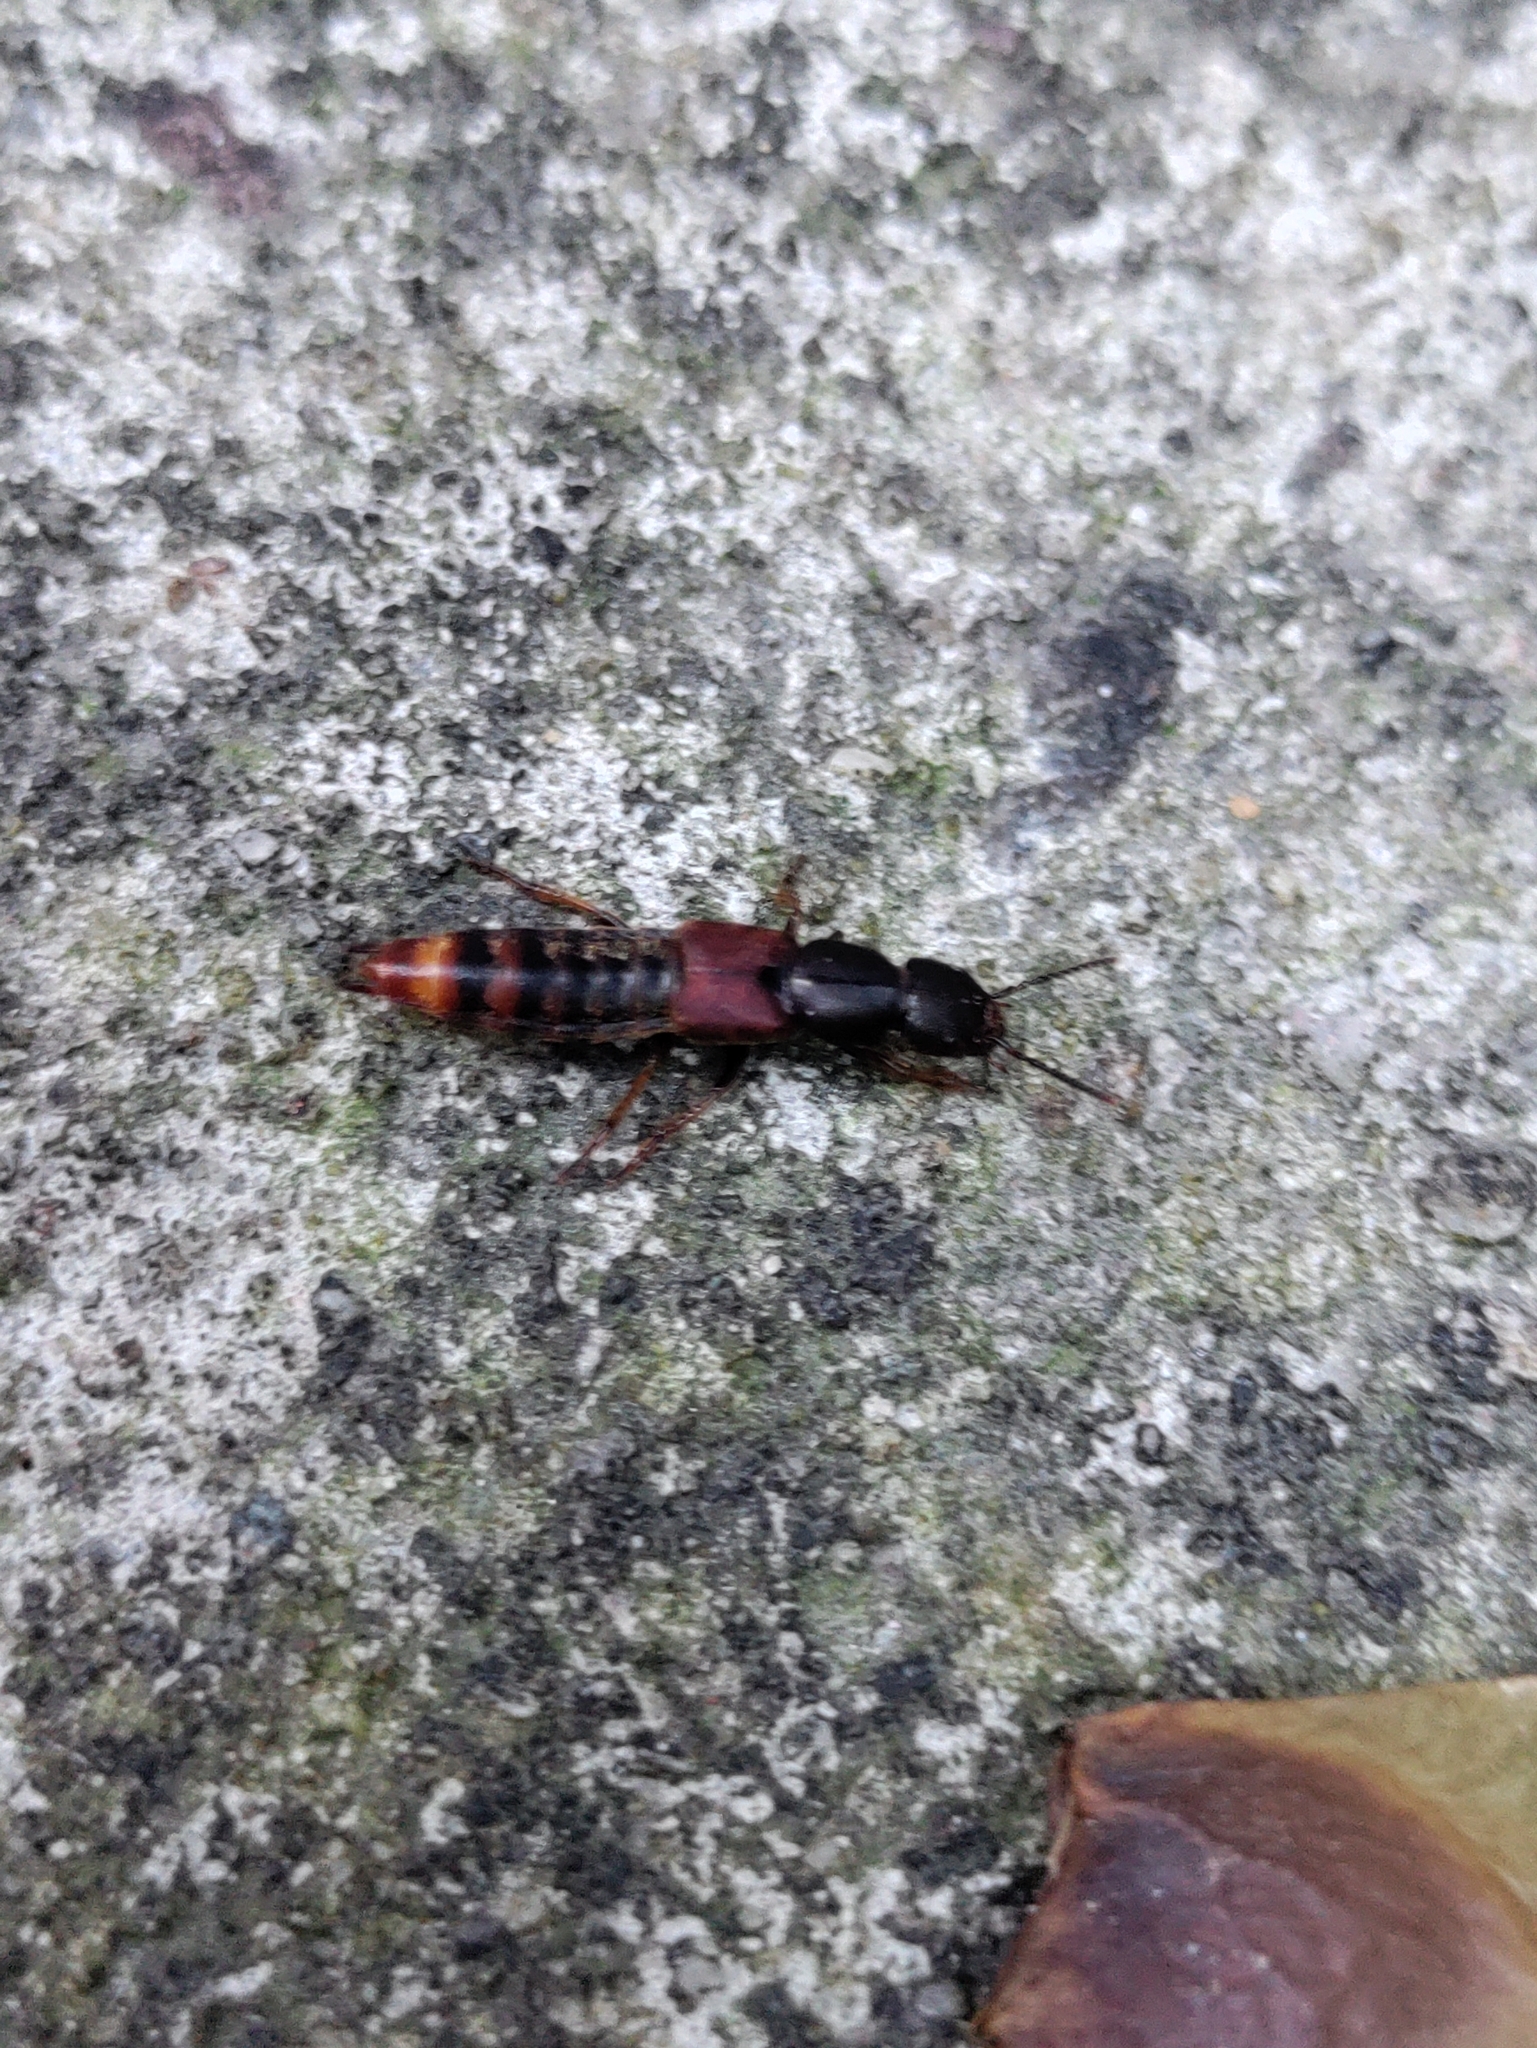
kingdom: Animalia
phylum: Arthropoda
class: Insecta
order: Coleoptera
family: Staphylinidae
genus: Platydracus
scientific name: Platydracus cinnamopterus
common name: Cinnamon rove beetle
